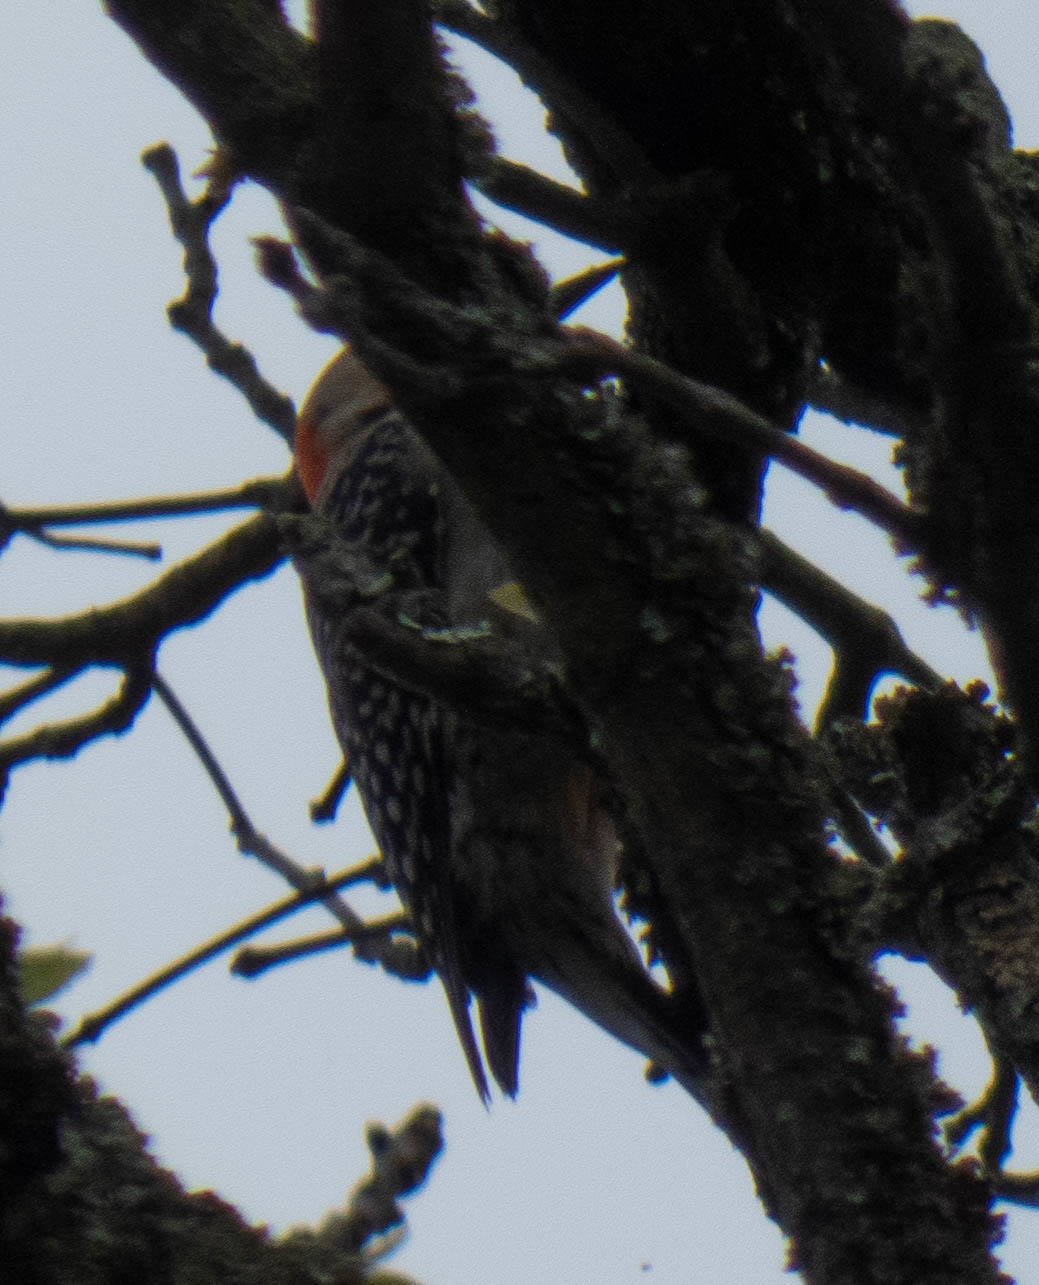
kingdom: Animalia
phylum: Chordata
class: Aves
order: Piciformes
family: Picidae
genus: Melanerpes
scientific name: Melanerpes carolinus
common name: Red-bellied woodpecker
